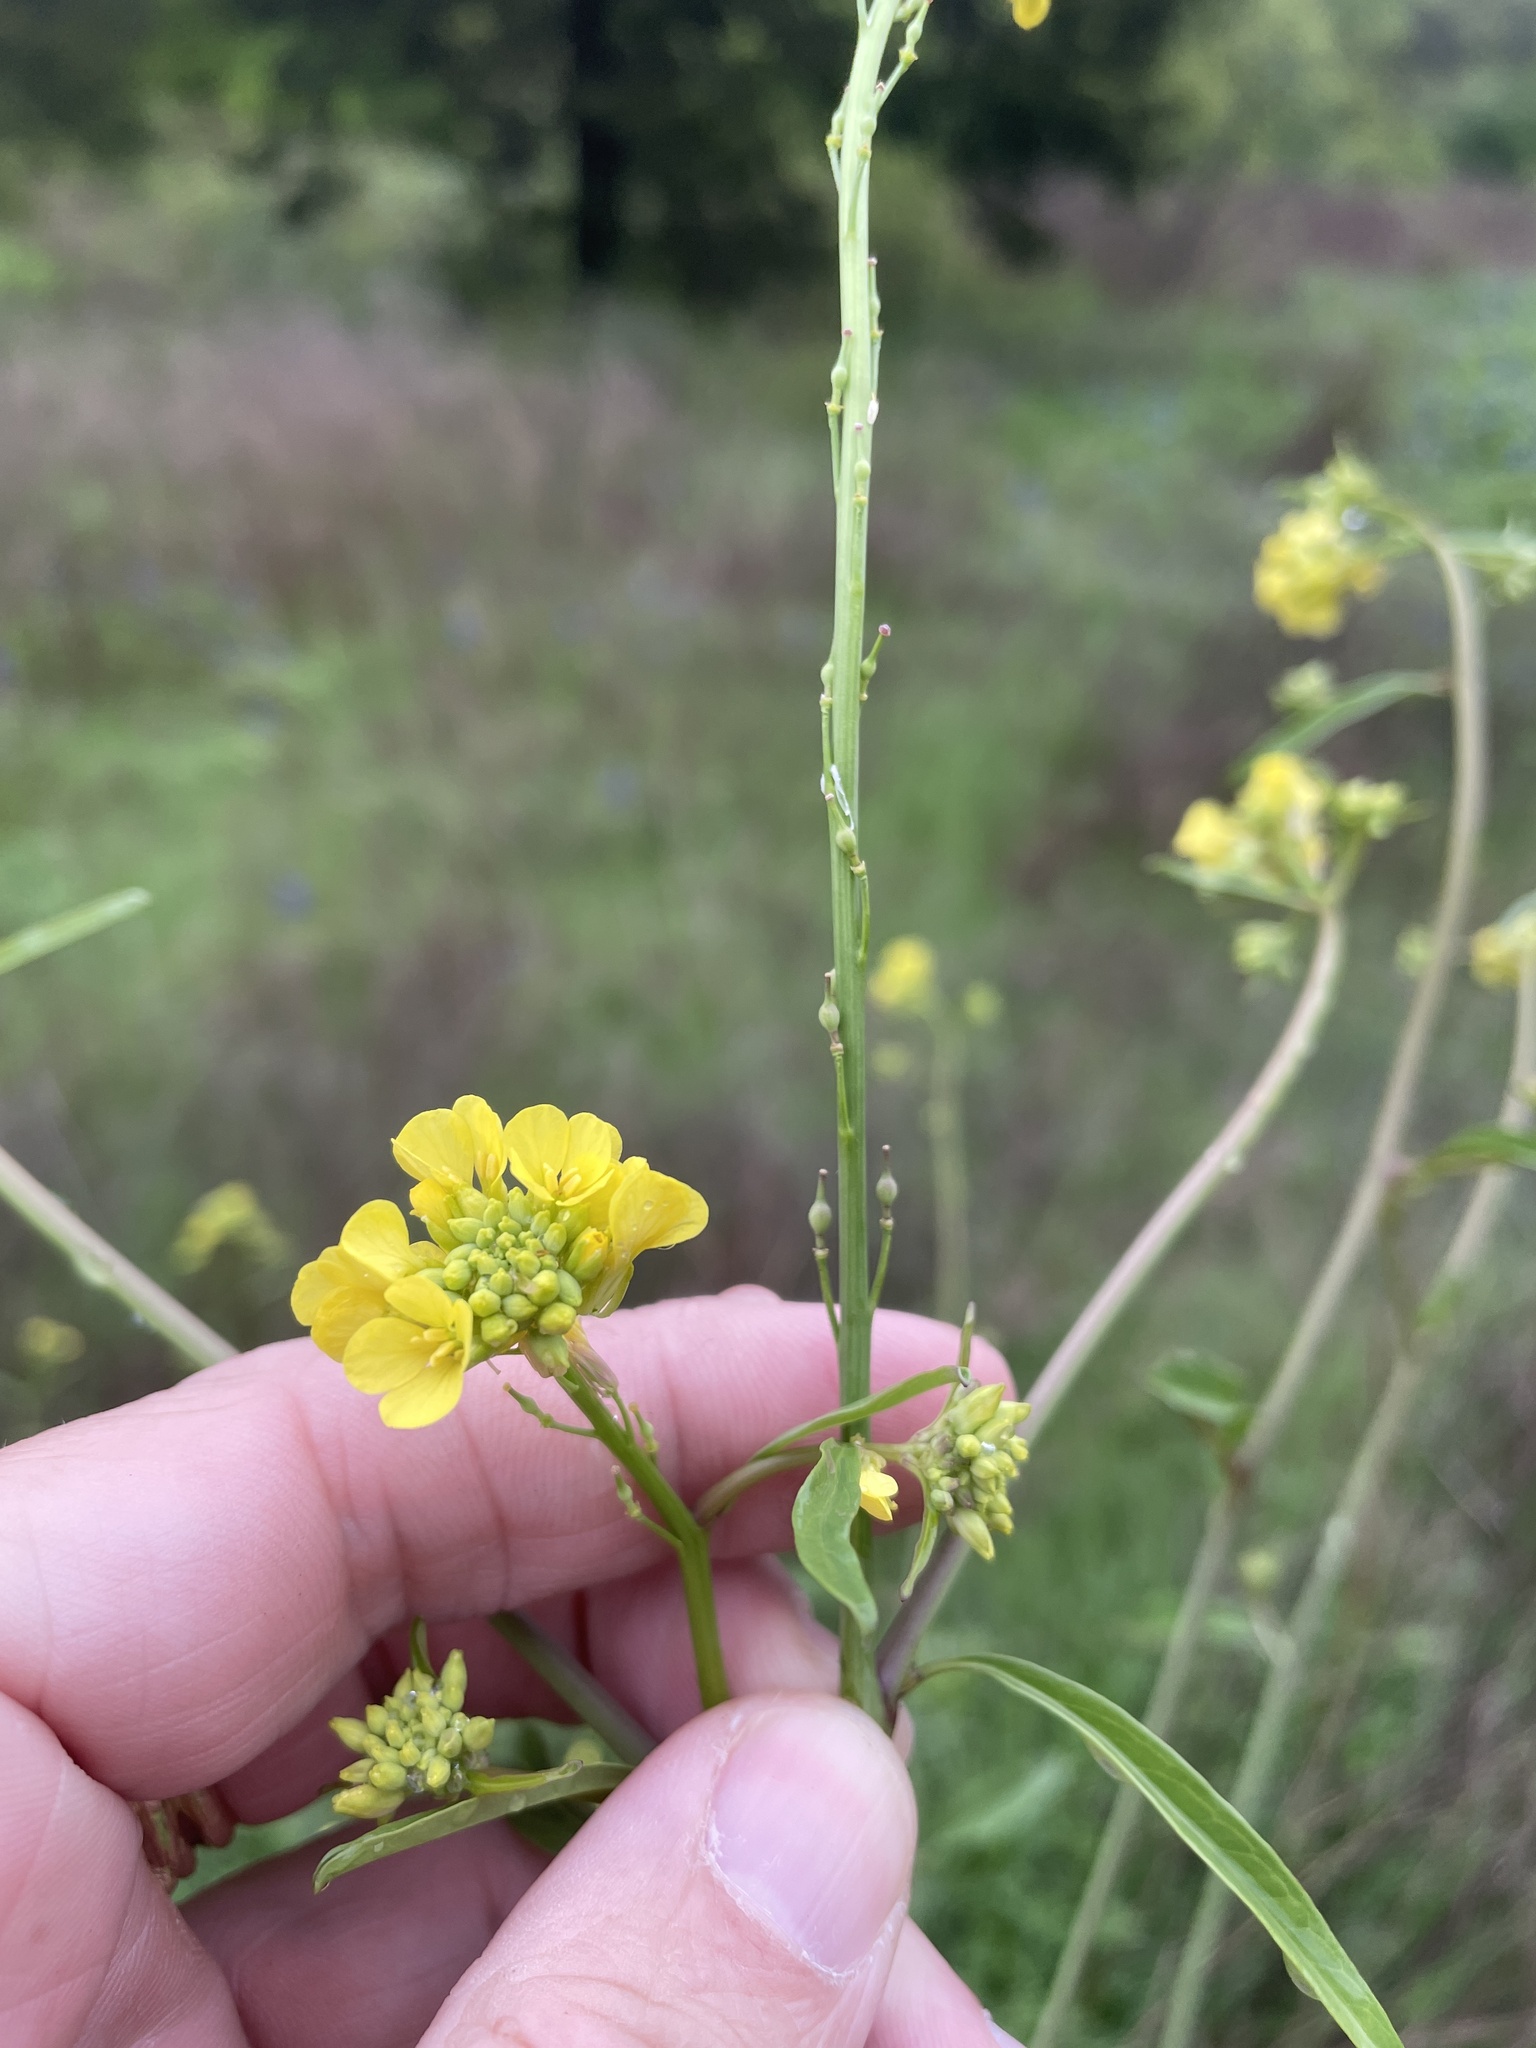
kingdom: Plantae
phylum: Tracheophyta
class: Magnoliopsida
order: Brassicales
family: Brassicaceae
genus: Rapistrum
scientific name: Rapistrum rugosum
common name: Annual bastardcabbage
